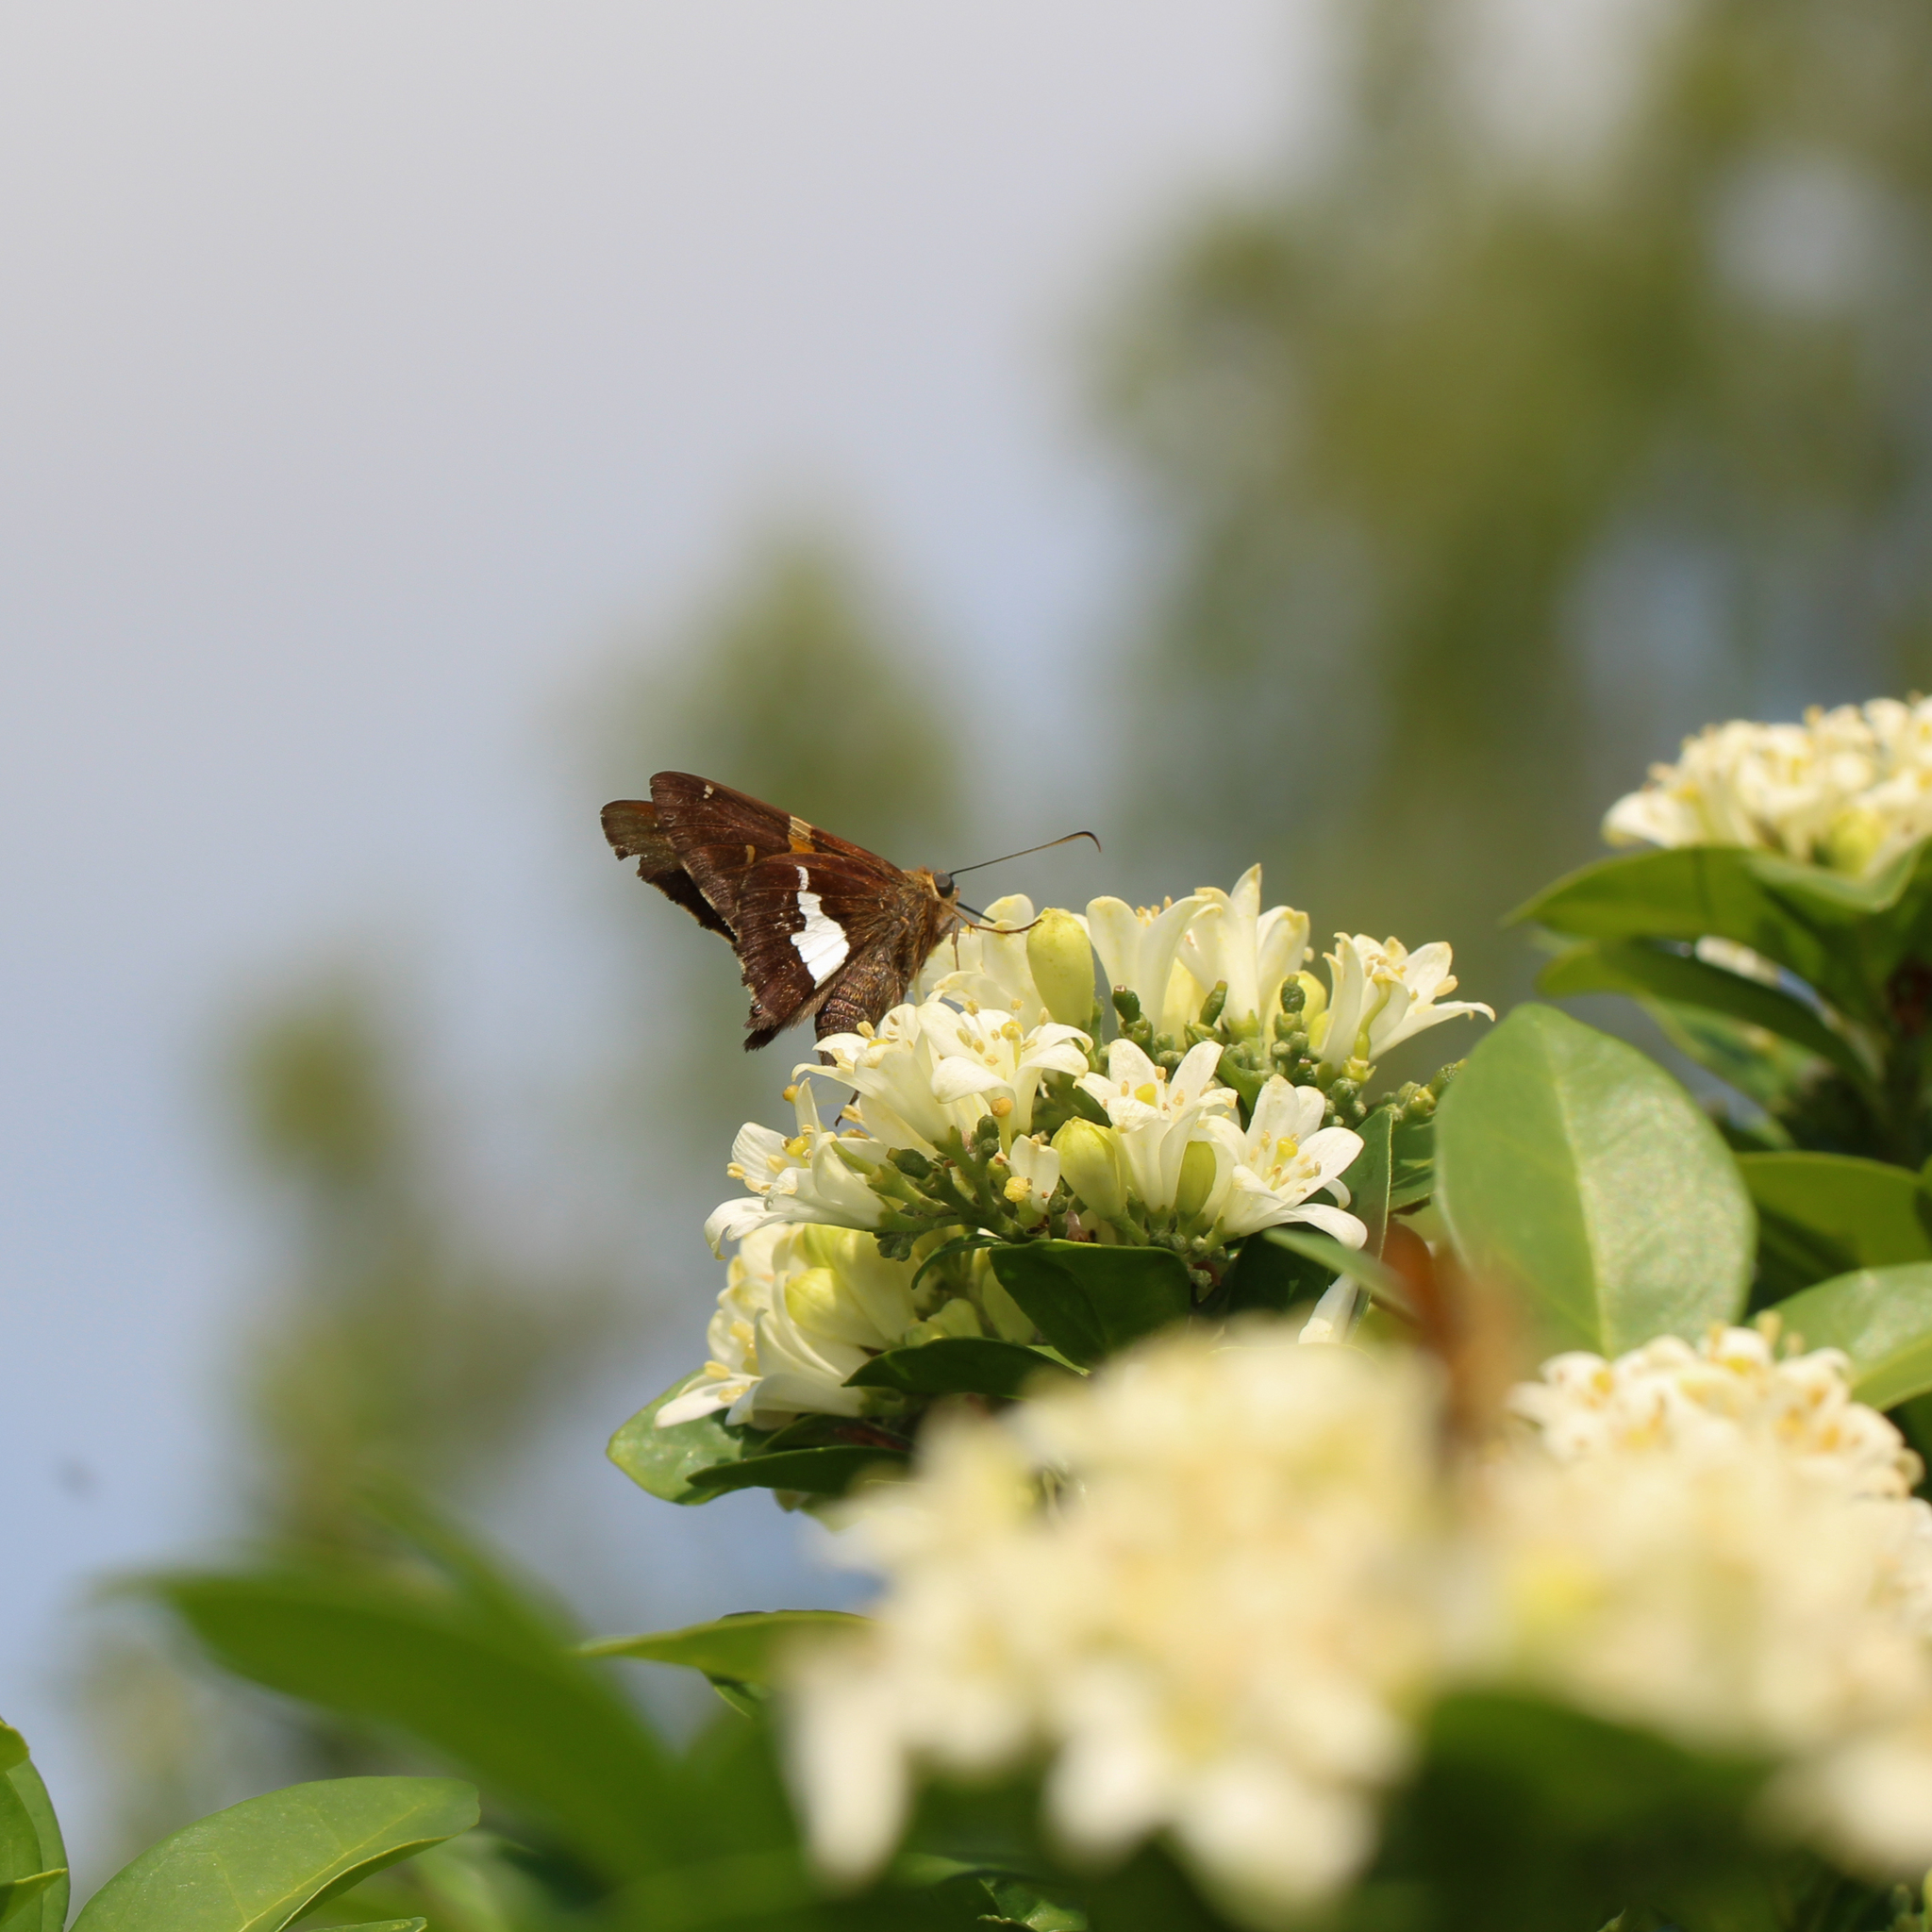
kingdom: Animalia
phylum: Arthropoda
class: Insecta
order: Lepidoptera
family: Hesperiidae
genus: Epargyreus
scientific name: Epargyreus clarus
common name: Silver-spotted skipper
